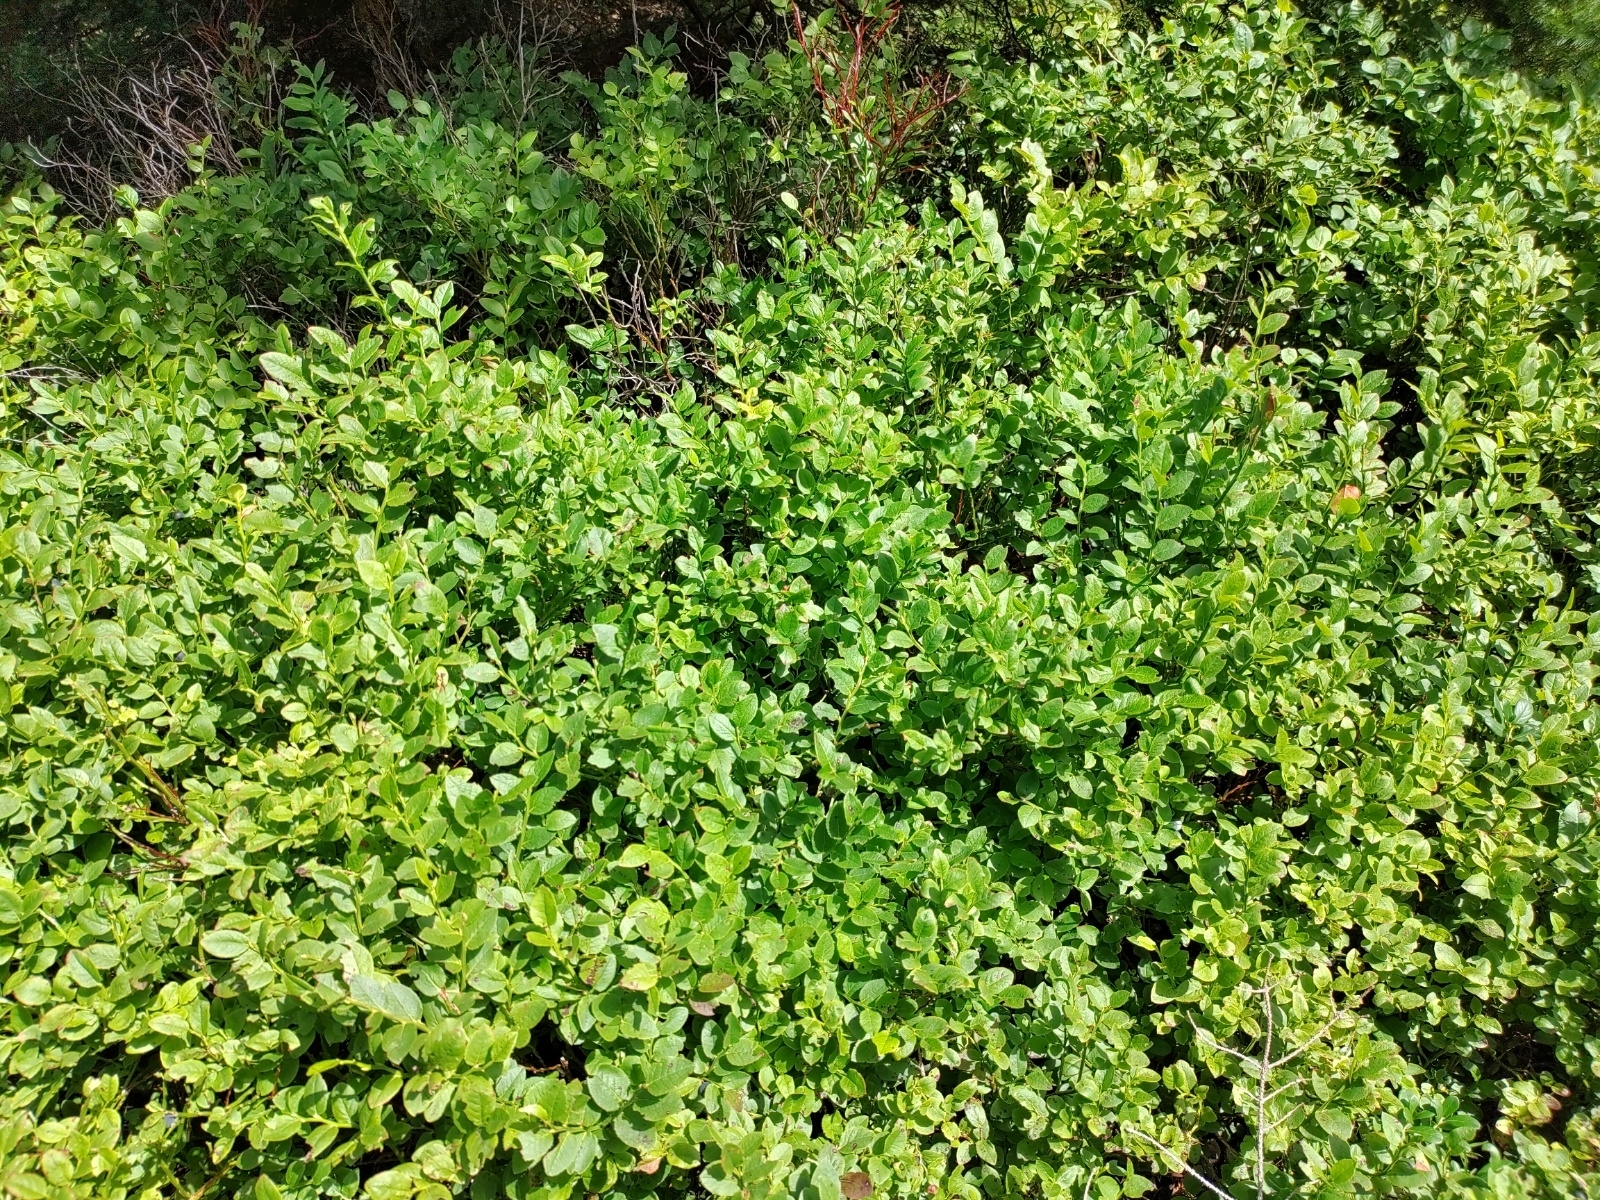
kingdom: Plantae
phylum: Tracheophyta
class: Magnoliopsida
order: Ericales
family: Ericaceae
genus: Vaccinium
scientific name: Vaccinium myrtillus
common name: Bilberry
